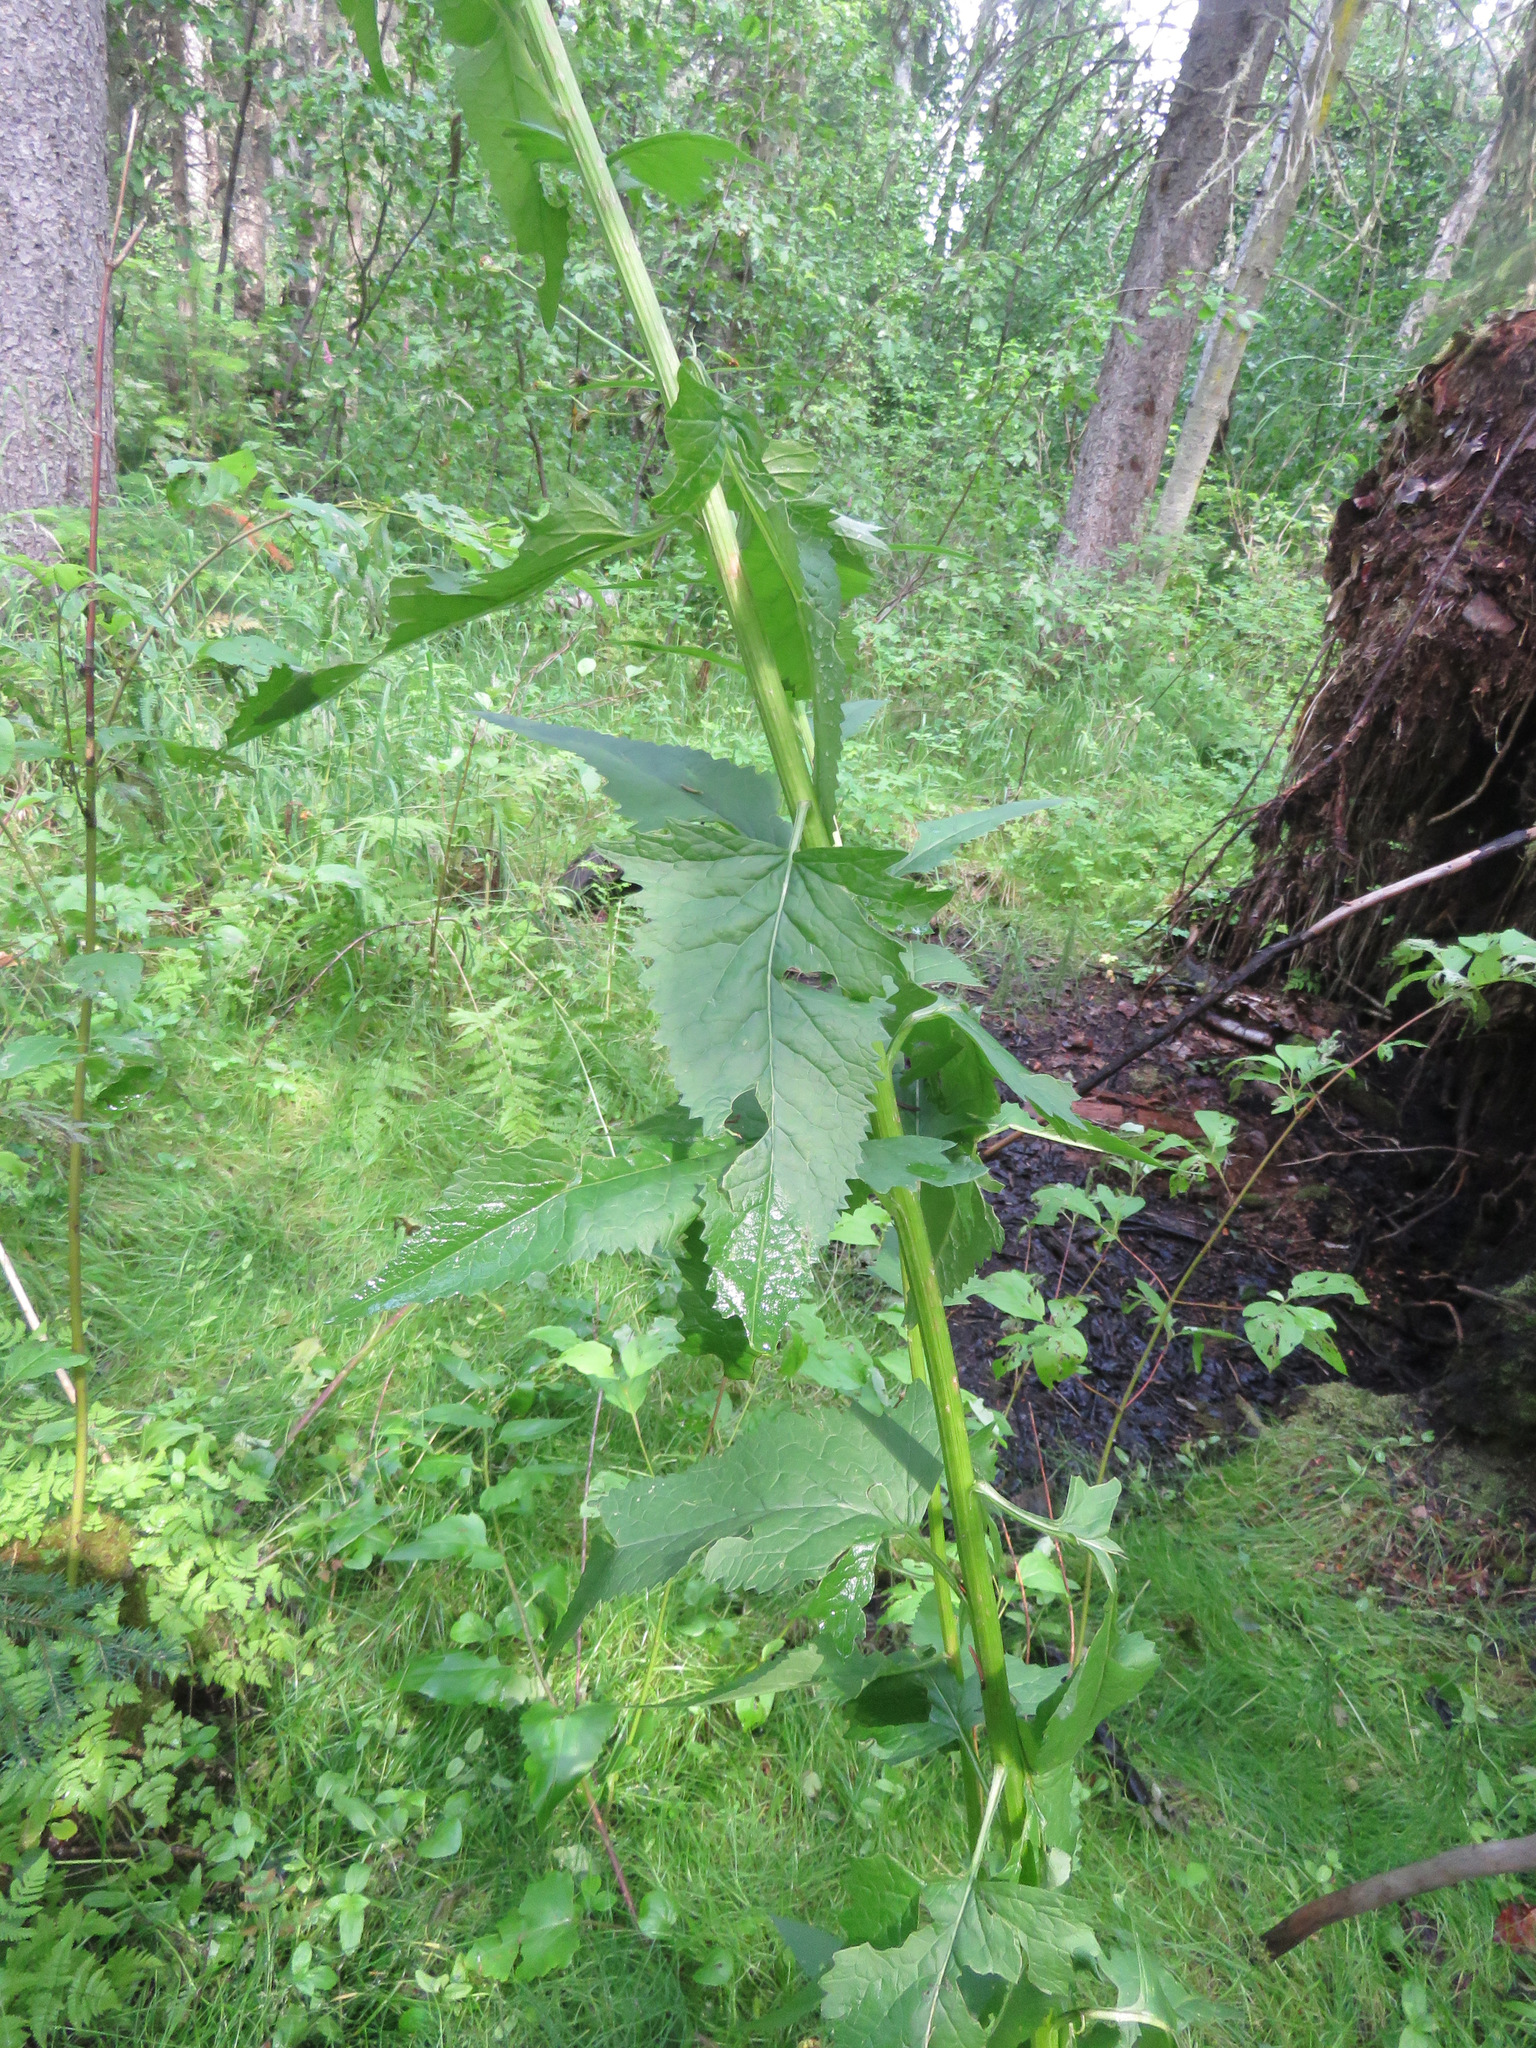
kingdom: Plantae
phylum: Tracheophyta
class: Magnoliopsida
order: Asterales
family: Asteraceae
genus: Senecio
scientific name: Senecio triangularis
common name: Arrowleaf butterweed
